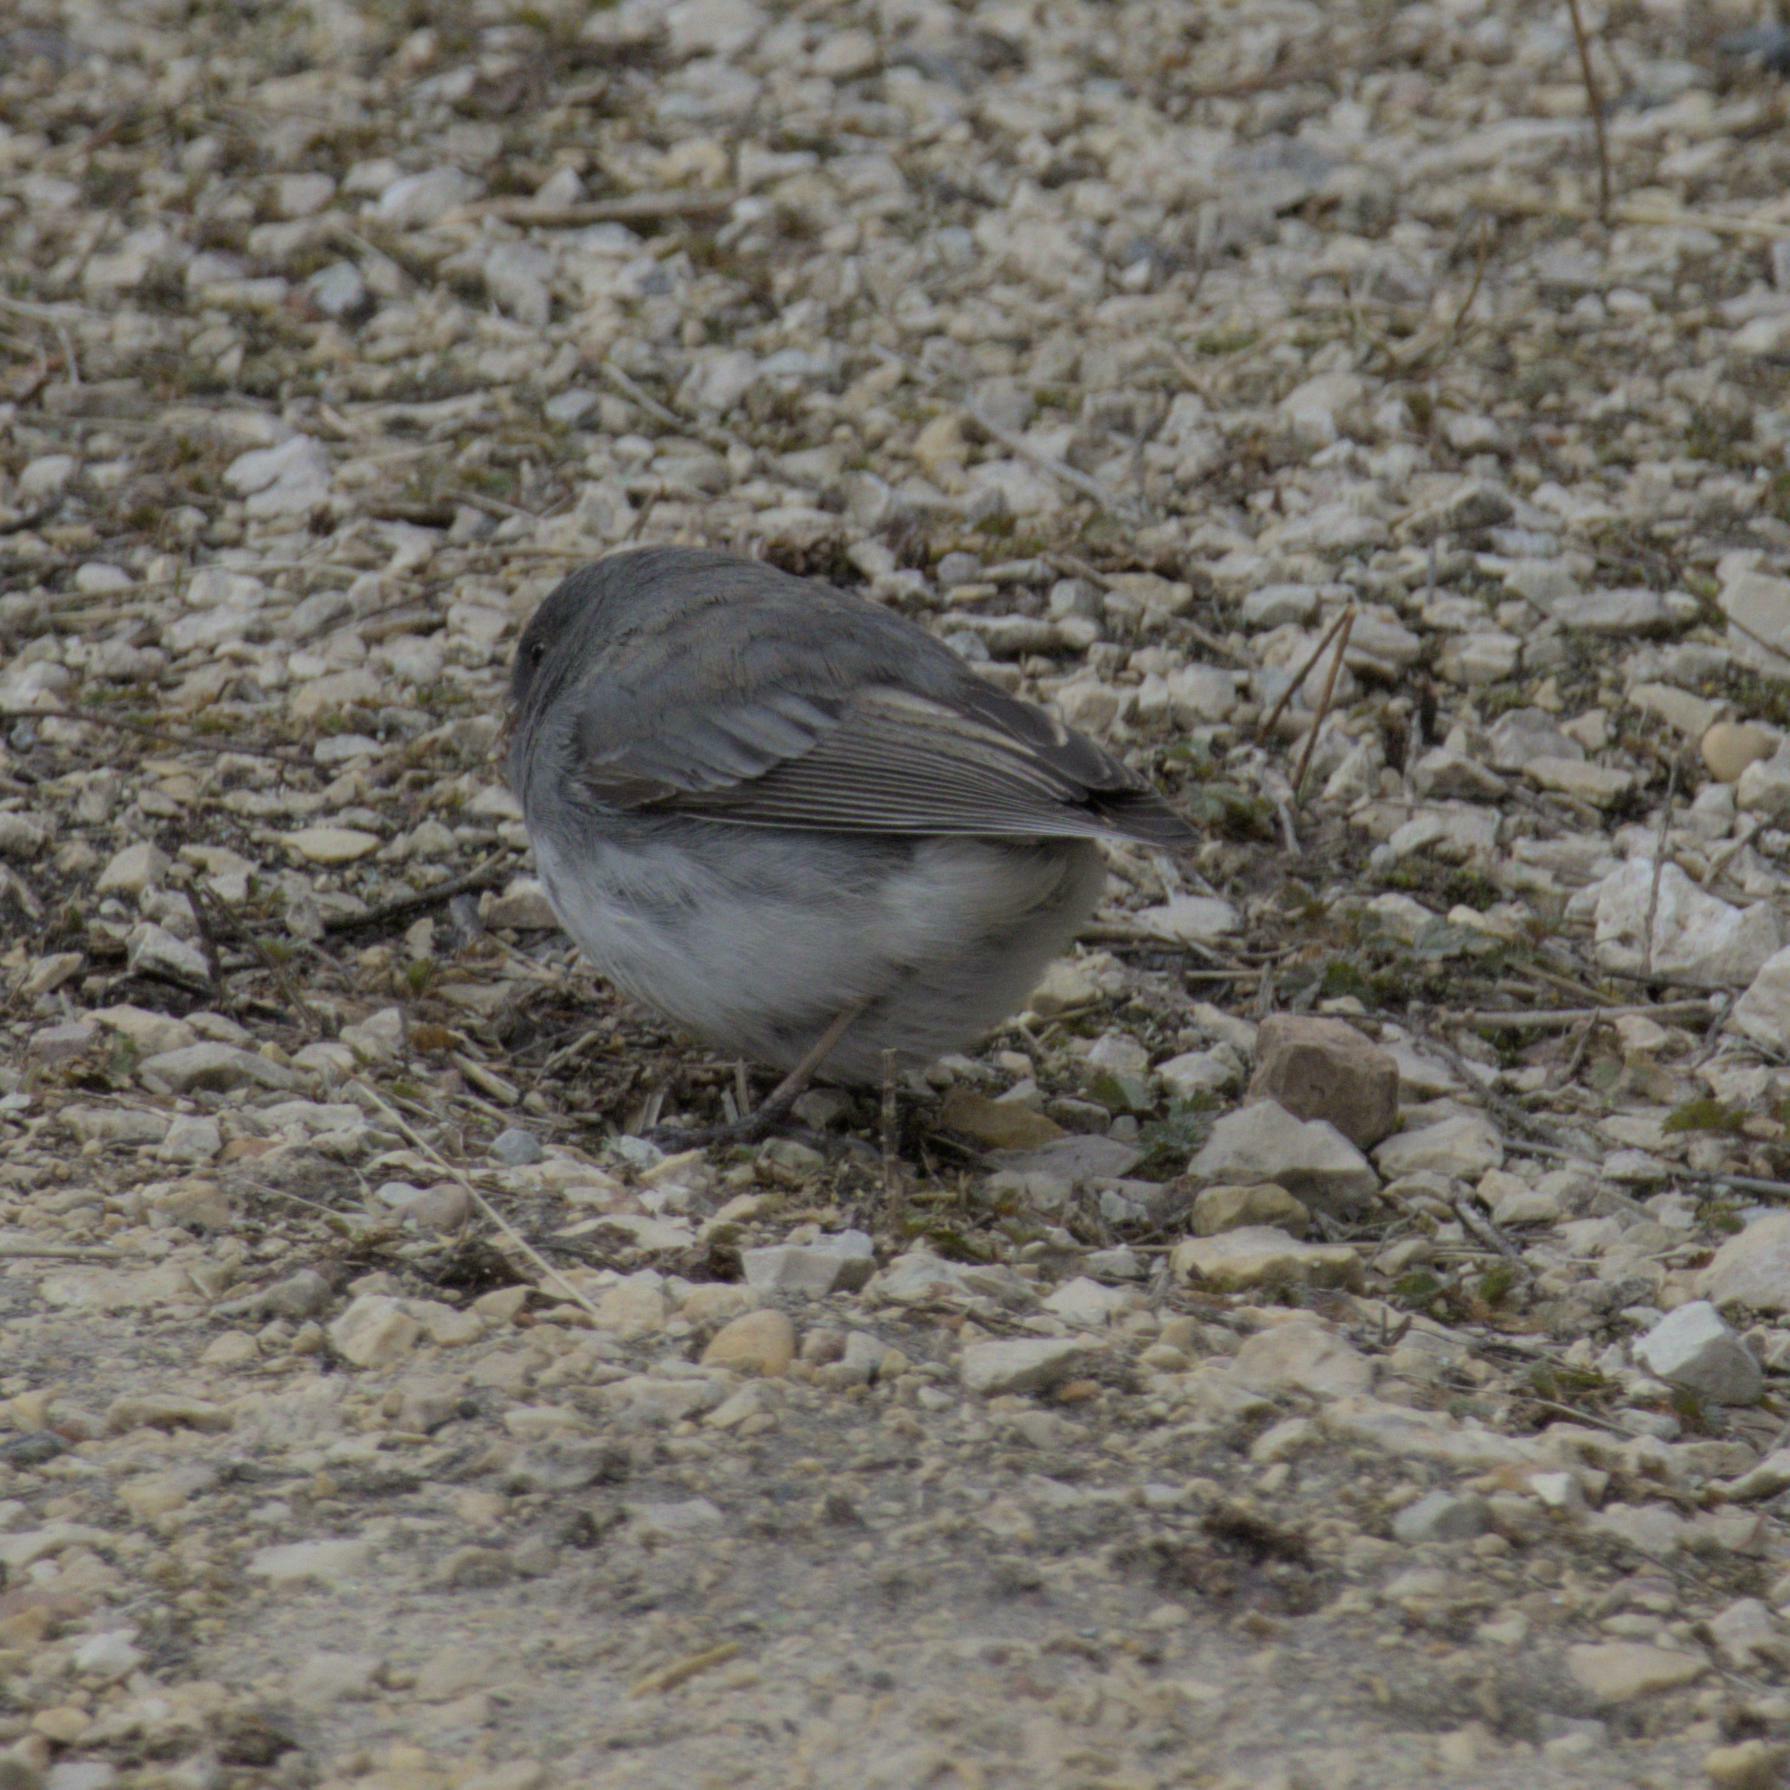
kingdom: Animalia
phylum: Chordata
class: Aves
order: Passeriformes
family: Passerellidae
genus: Junco
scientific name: Junco hyemalis
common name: Dark-eyed junco
